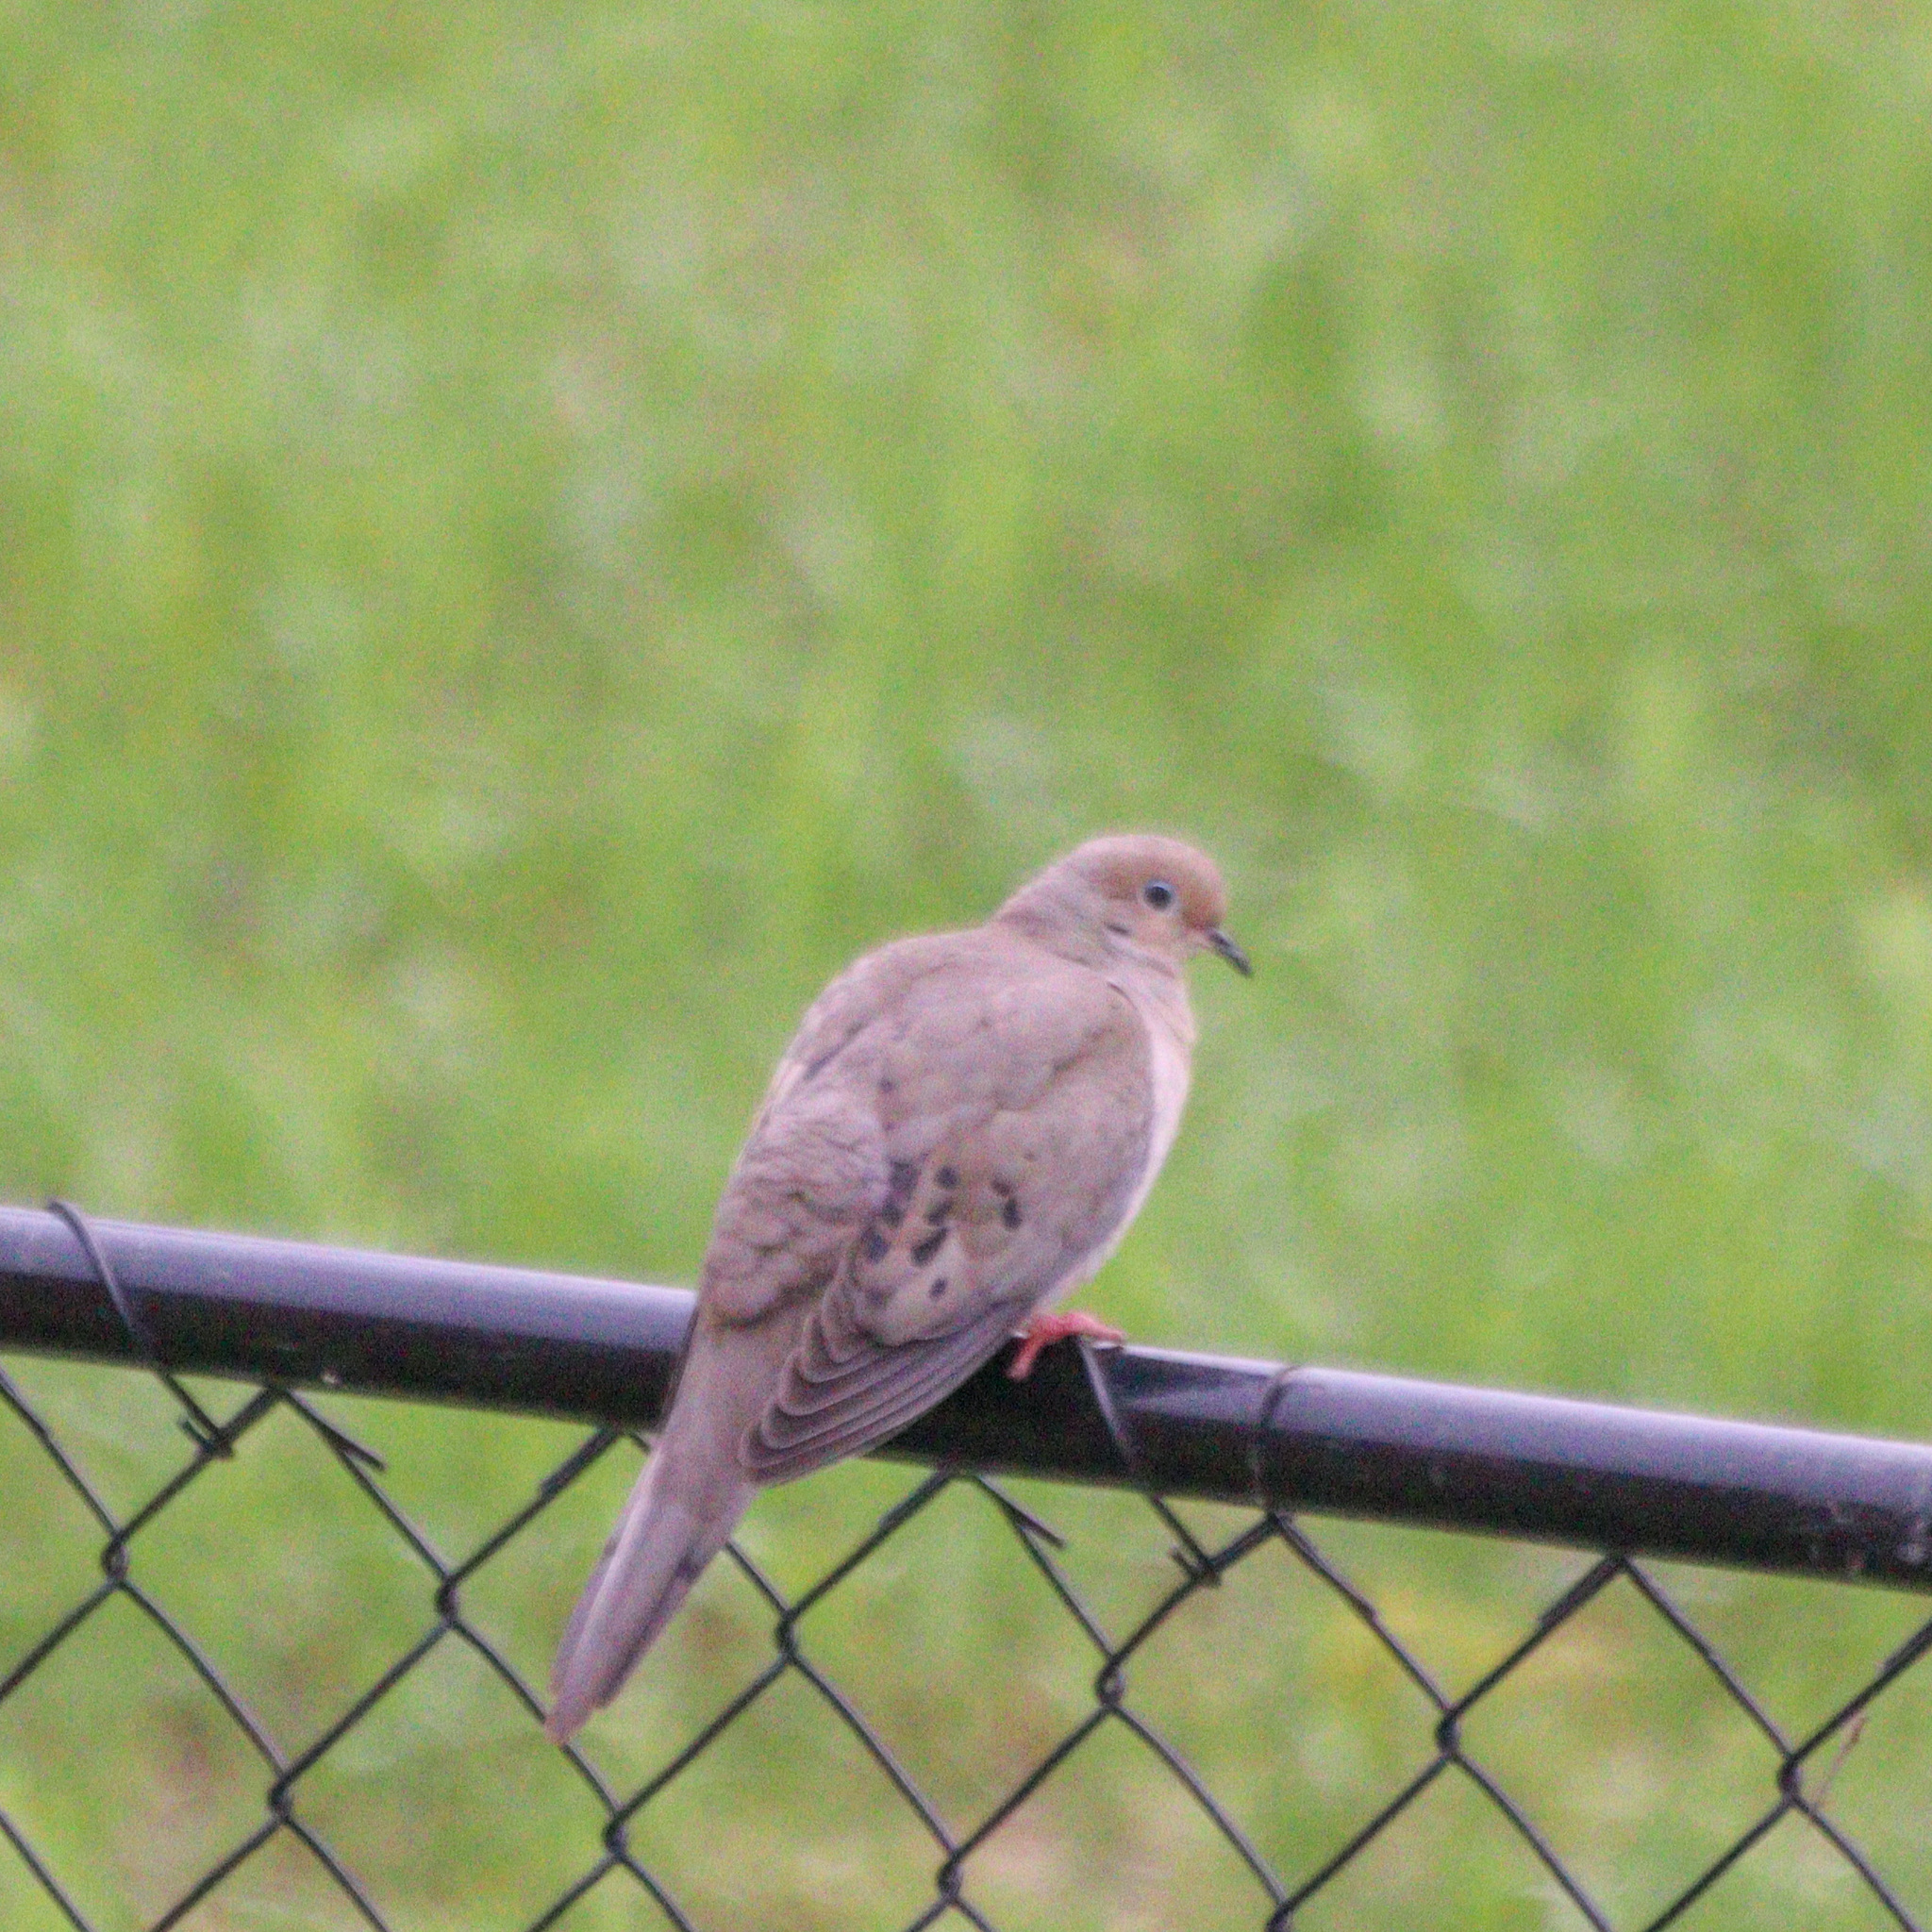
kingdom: Animalia
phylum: Chordata
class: Aves
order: Columbiformes
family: Columbidae
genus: Zenaida
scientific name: Zenaida macroura
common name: Mourning dove
